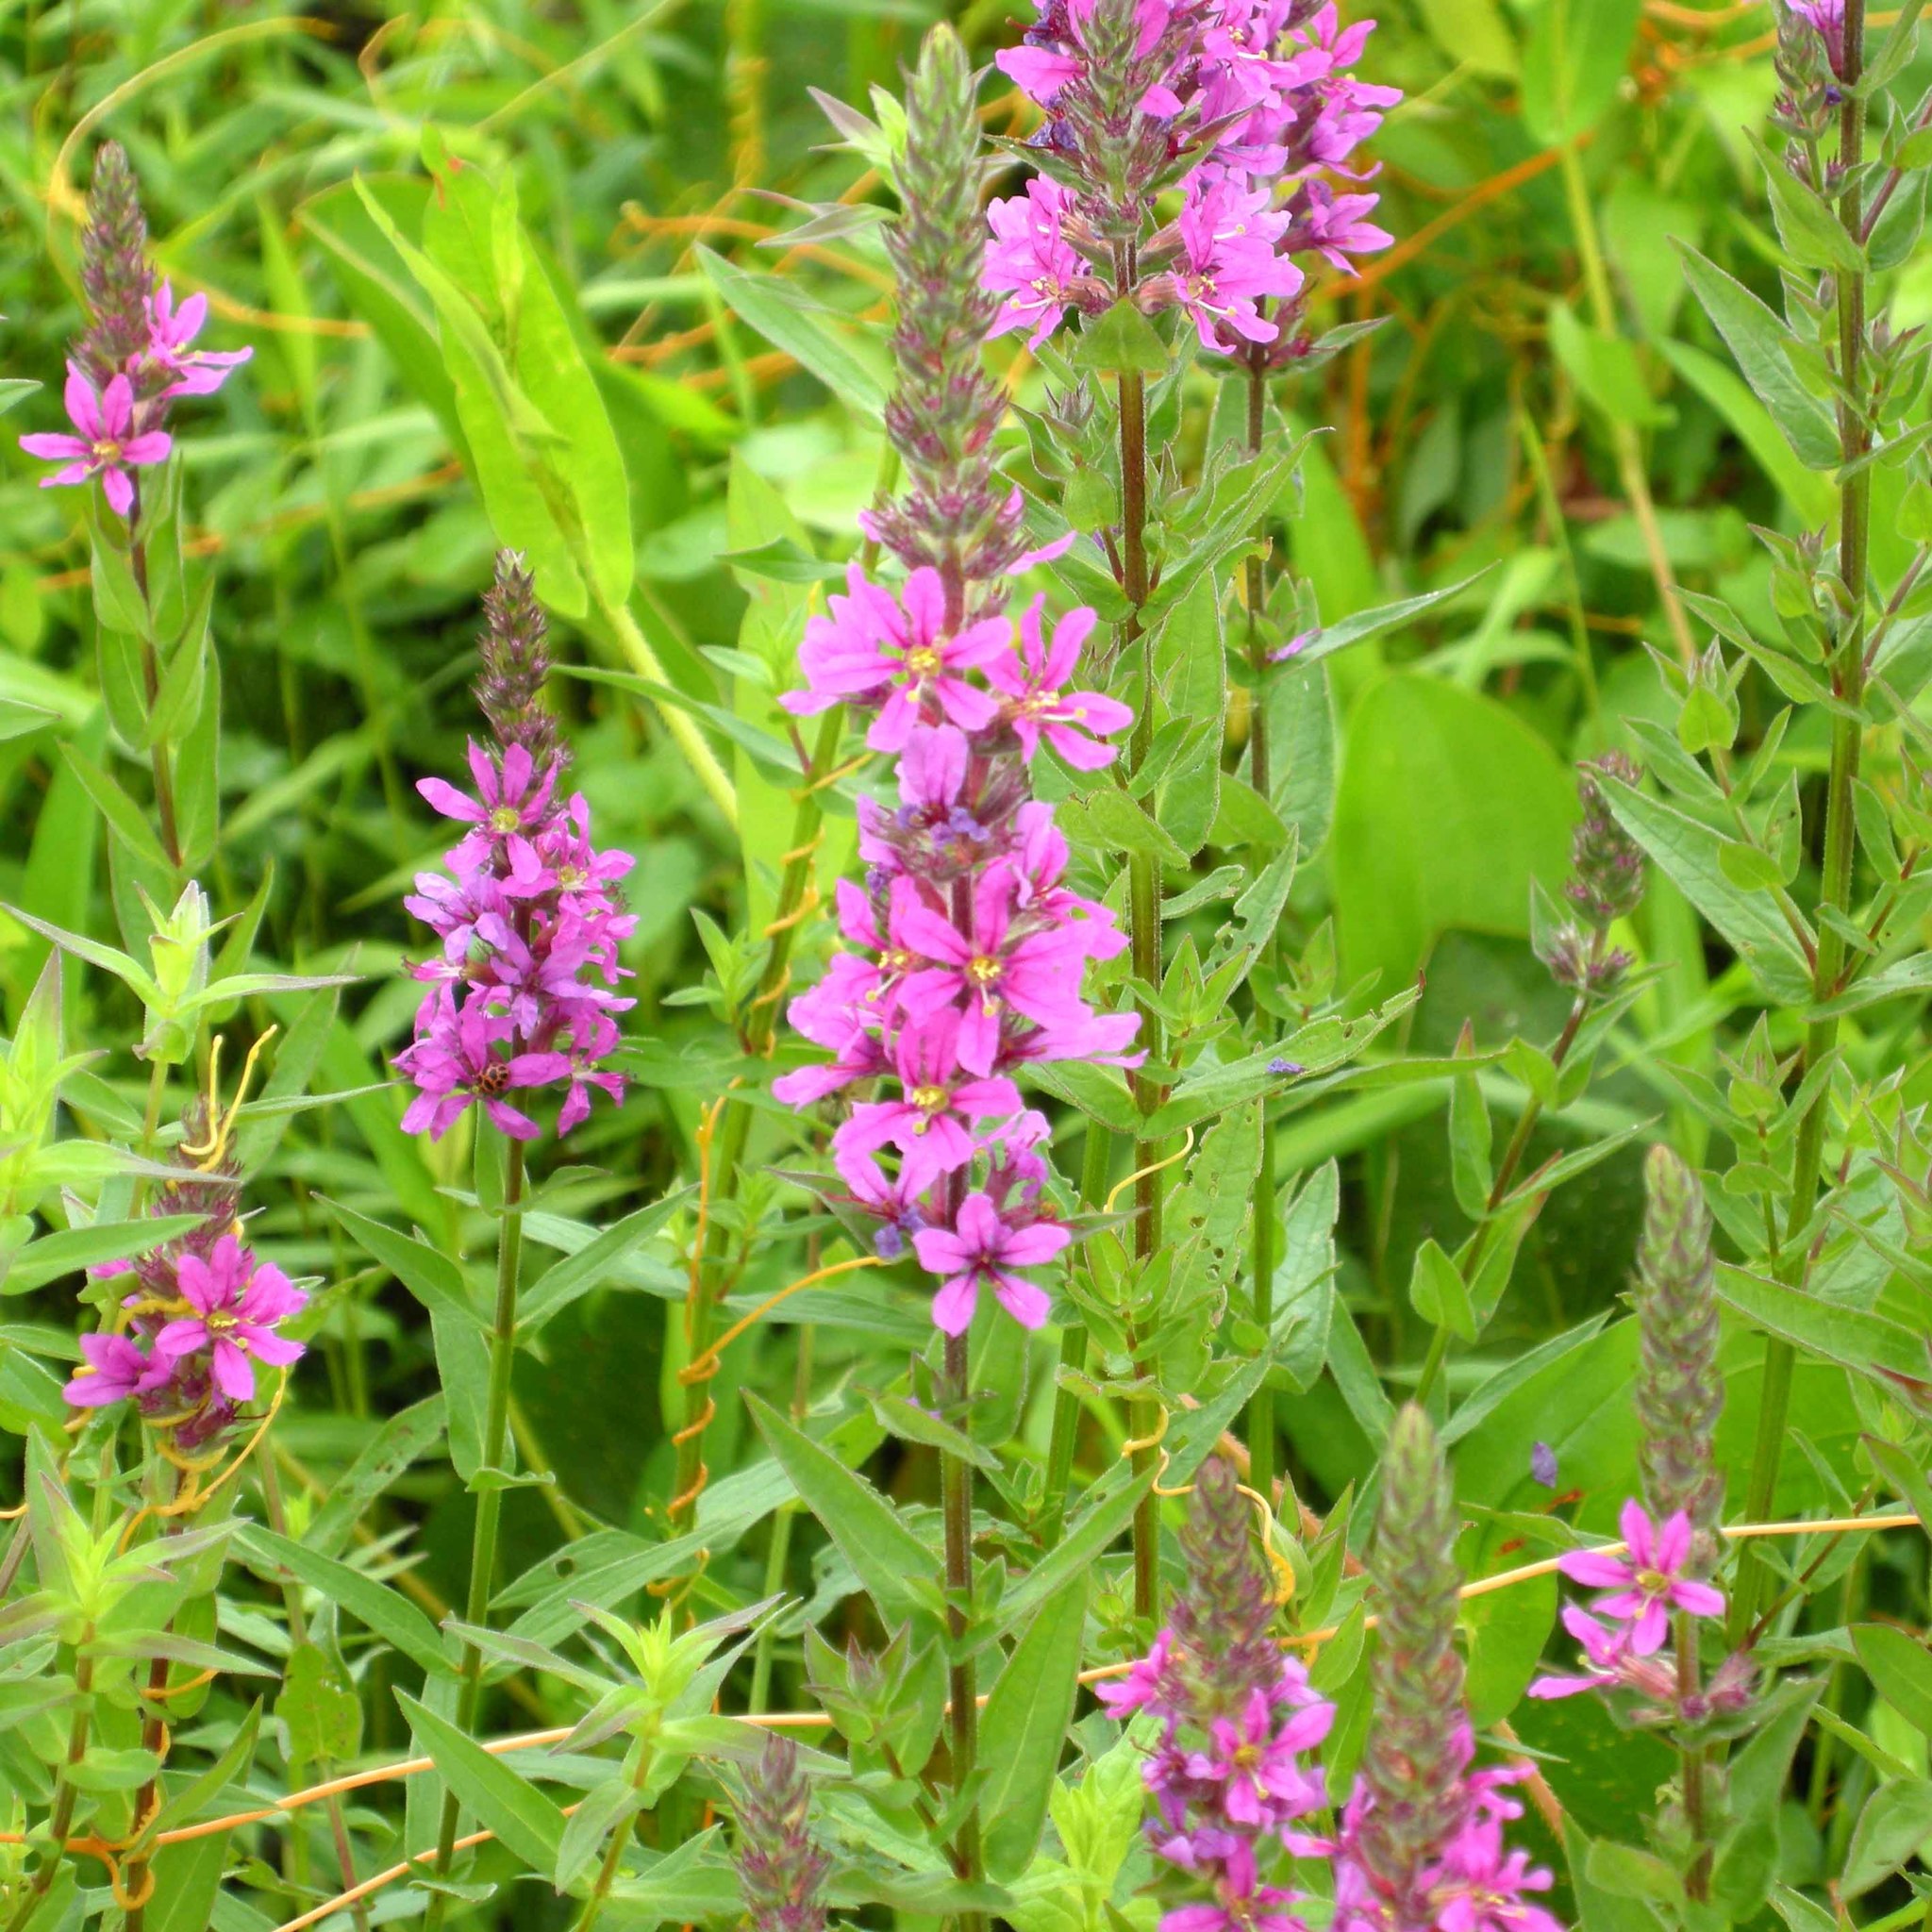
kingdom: Plantae
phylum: Tracheophyta
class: Magnoliopsida
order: Myrtales
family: Lythraceae
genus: Lythrum
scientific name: Lythrum salicaria
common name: Purple loosestrife
